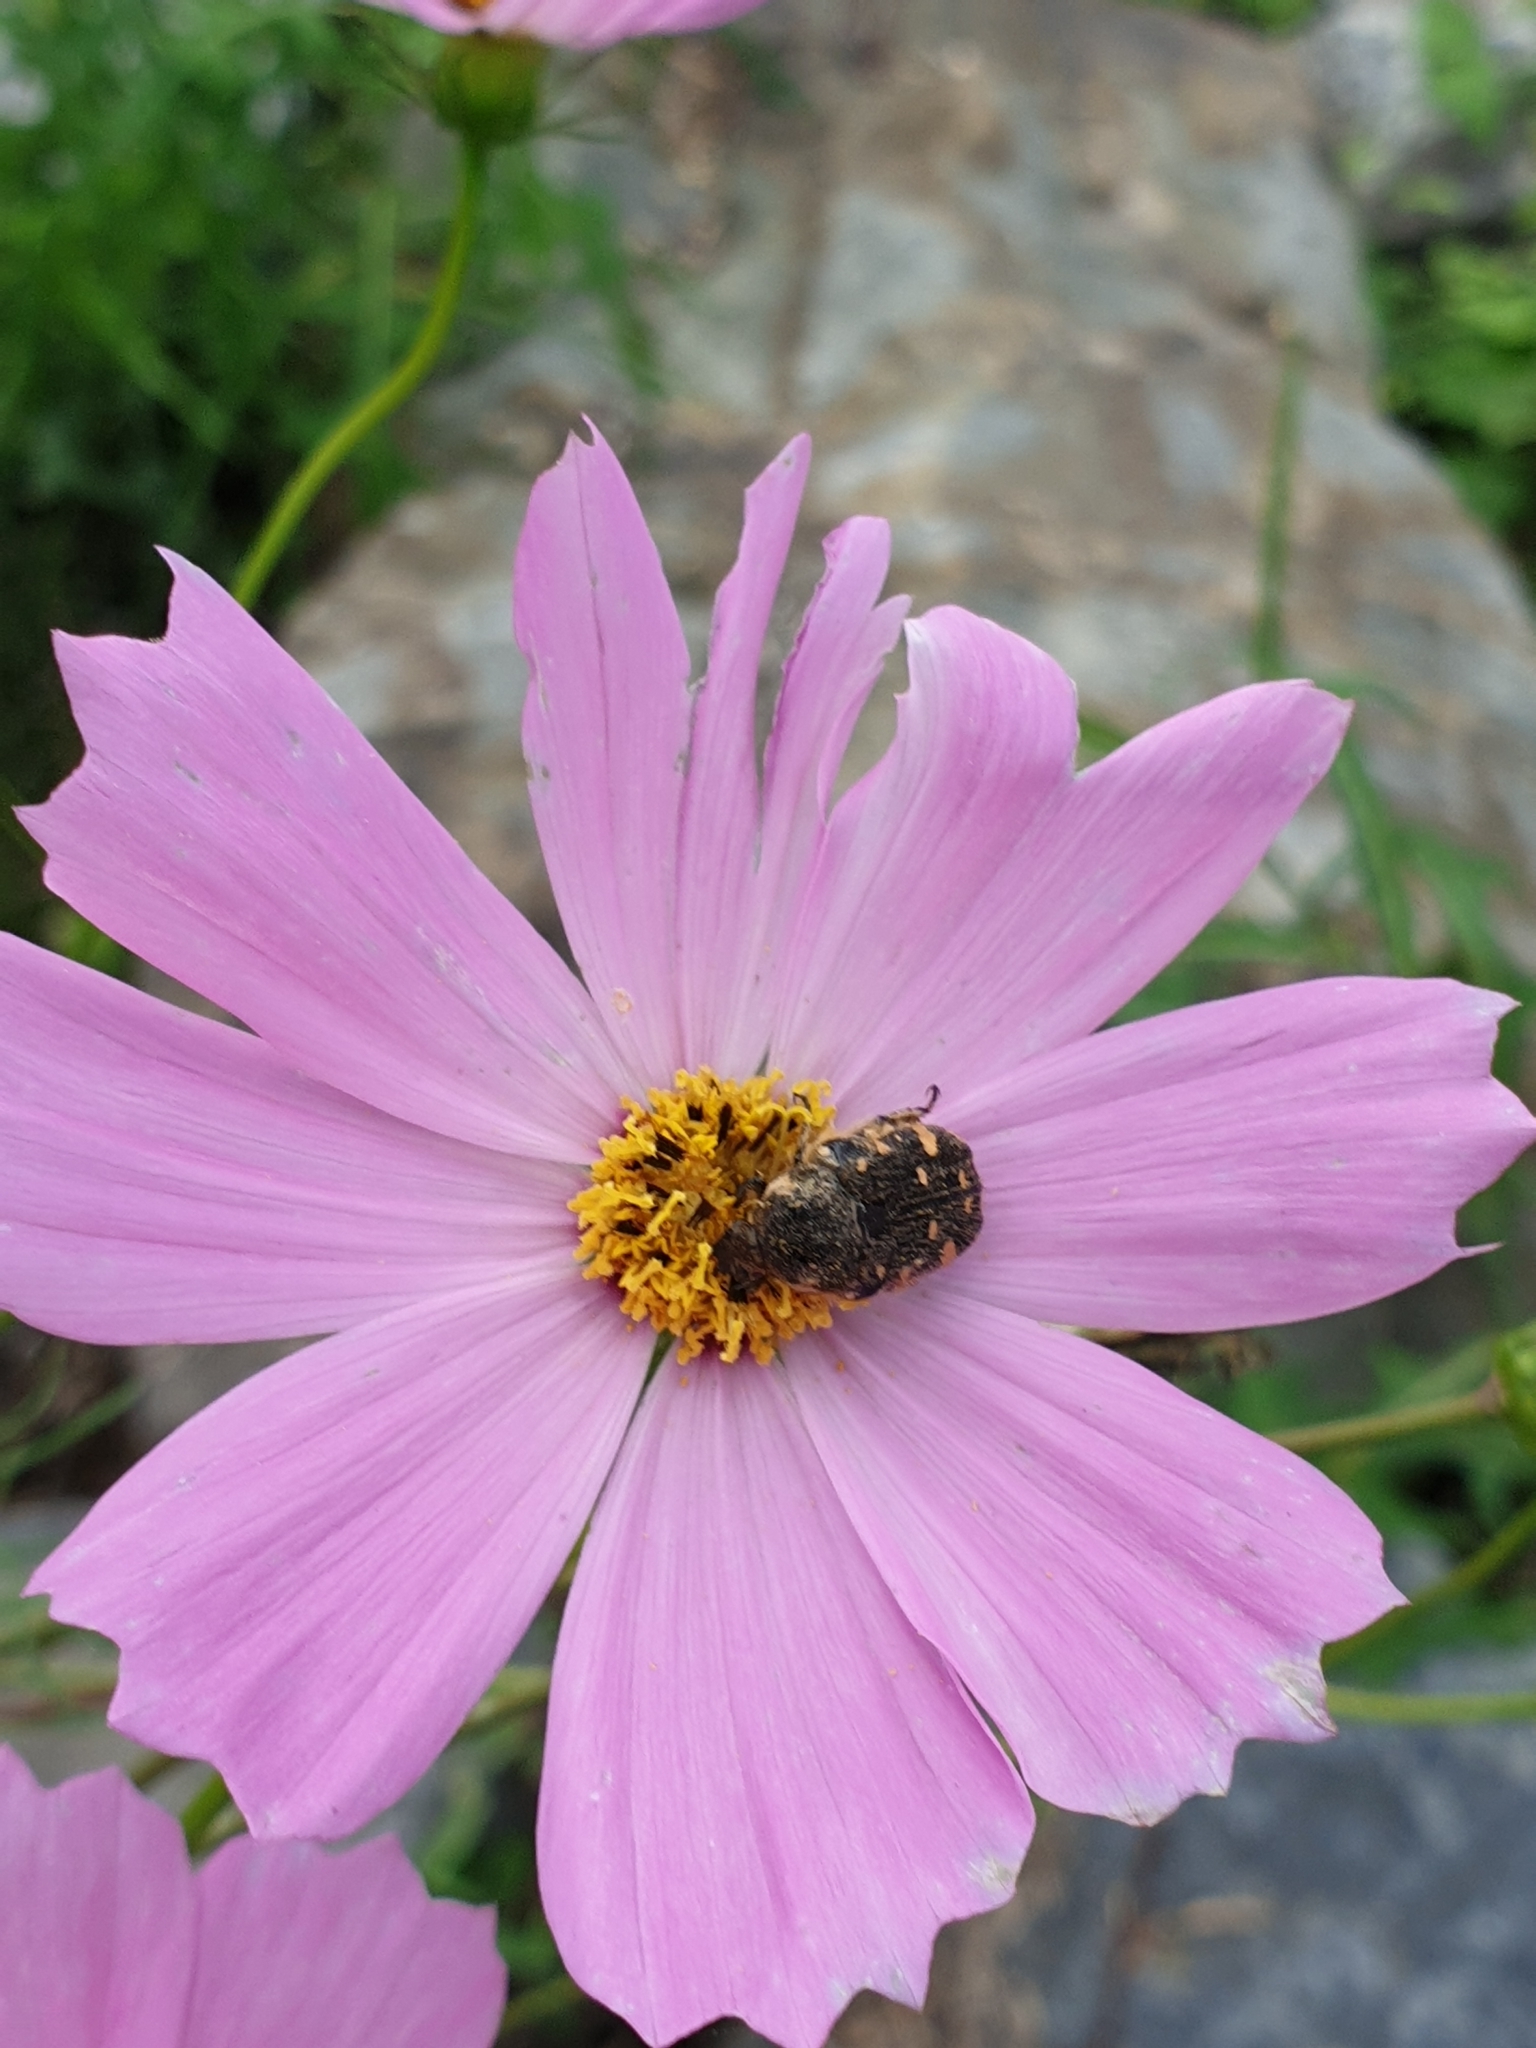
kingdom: Animalia
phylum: Arthropoda
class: Insecta
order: Coleoptera
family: Scarabaeidae
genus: Gametis
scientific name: Gametis jucunda
